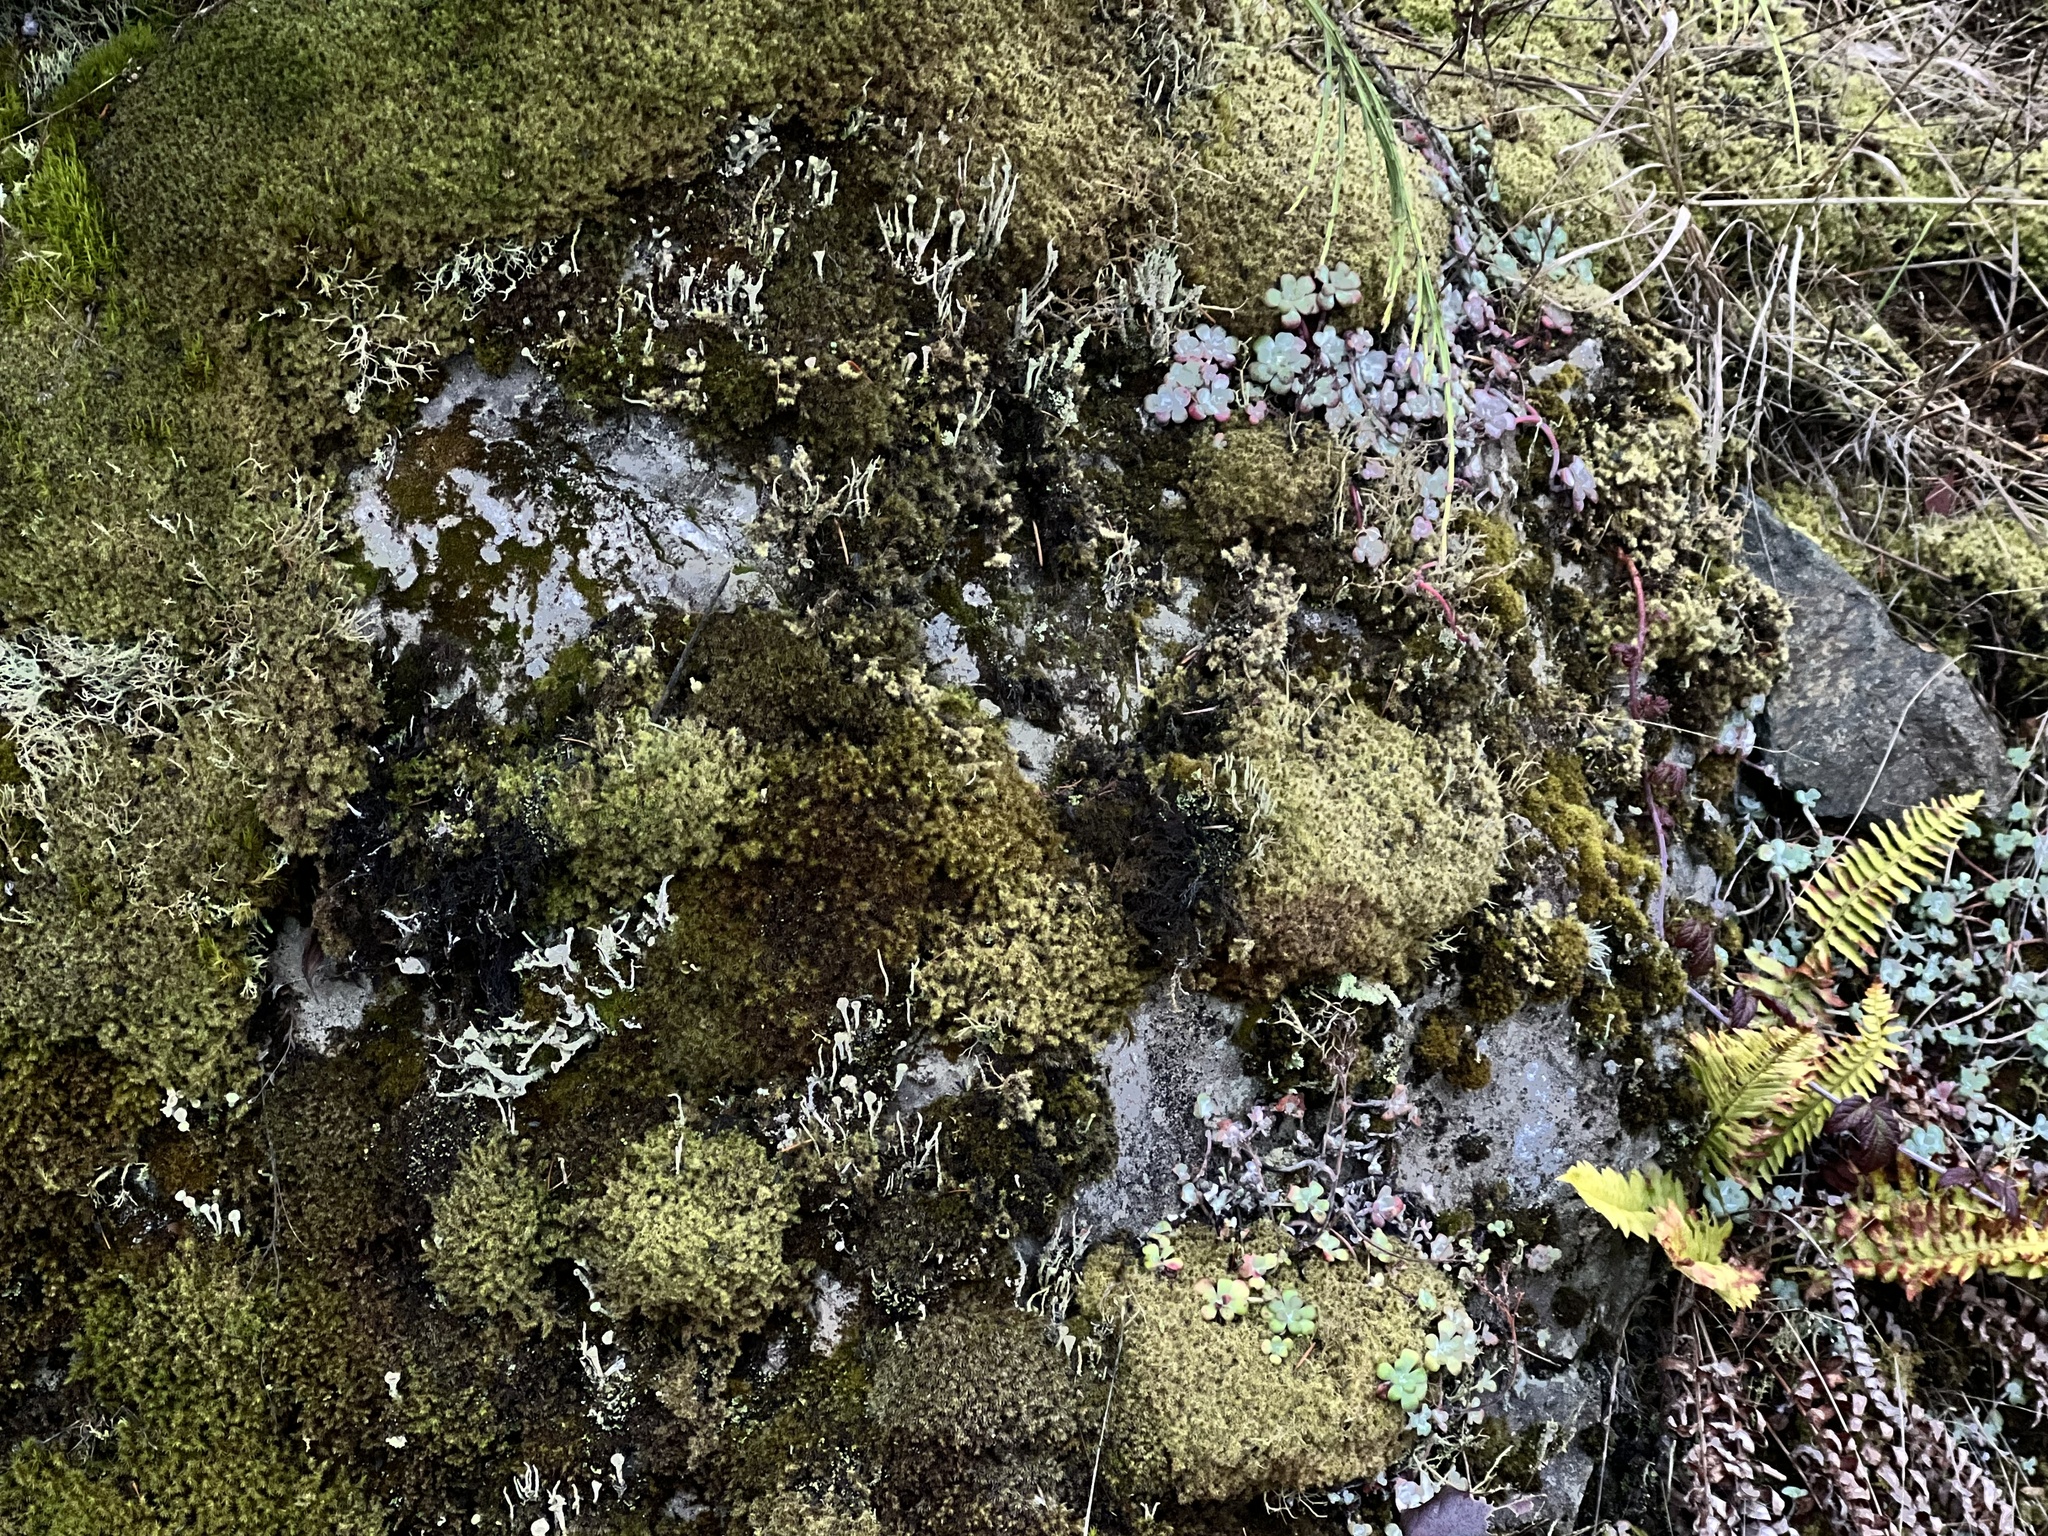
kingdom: Plantae
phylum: Tracheophyta
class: Magnoliopsida
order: Saxifragales
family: Crassulaceae
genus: Sedum
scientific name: Sedum spathulifolium
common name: Colorado stonecrop
